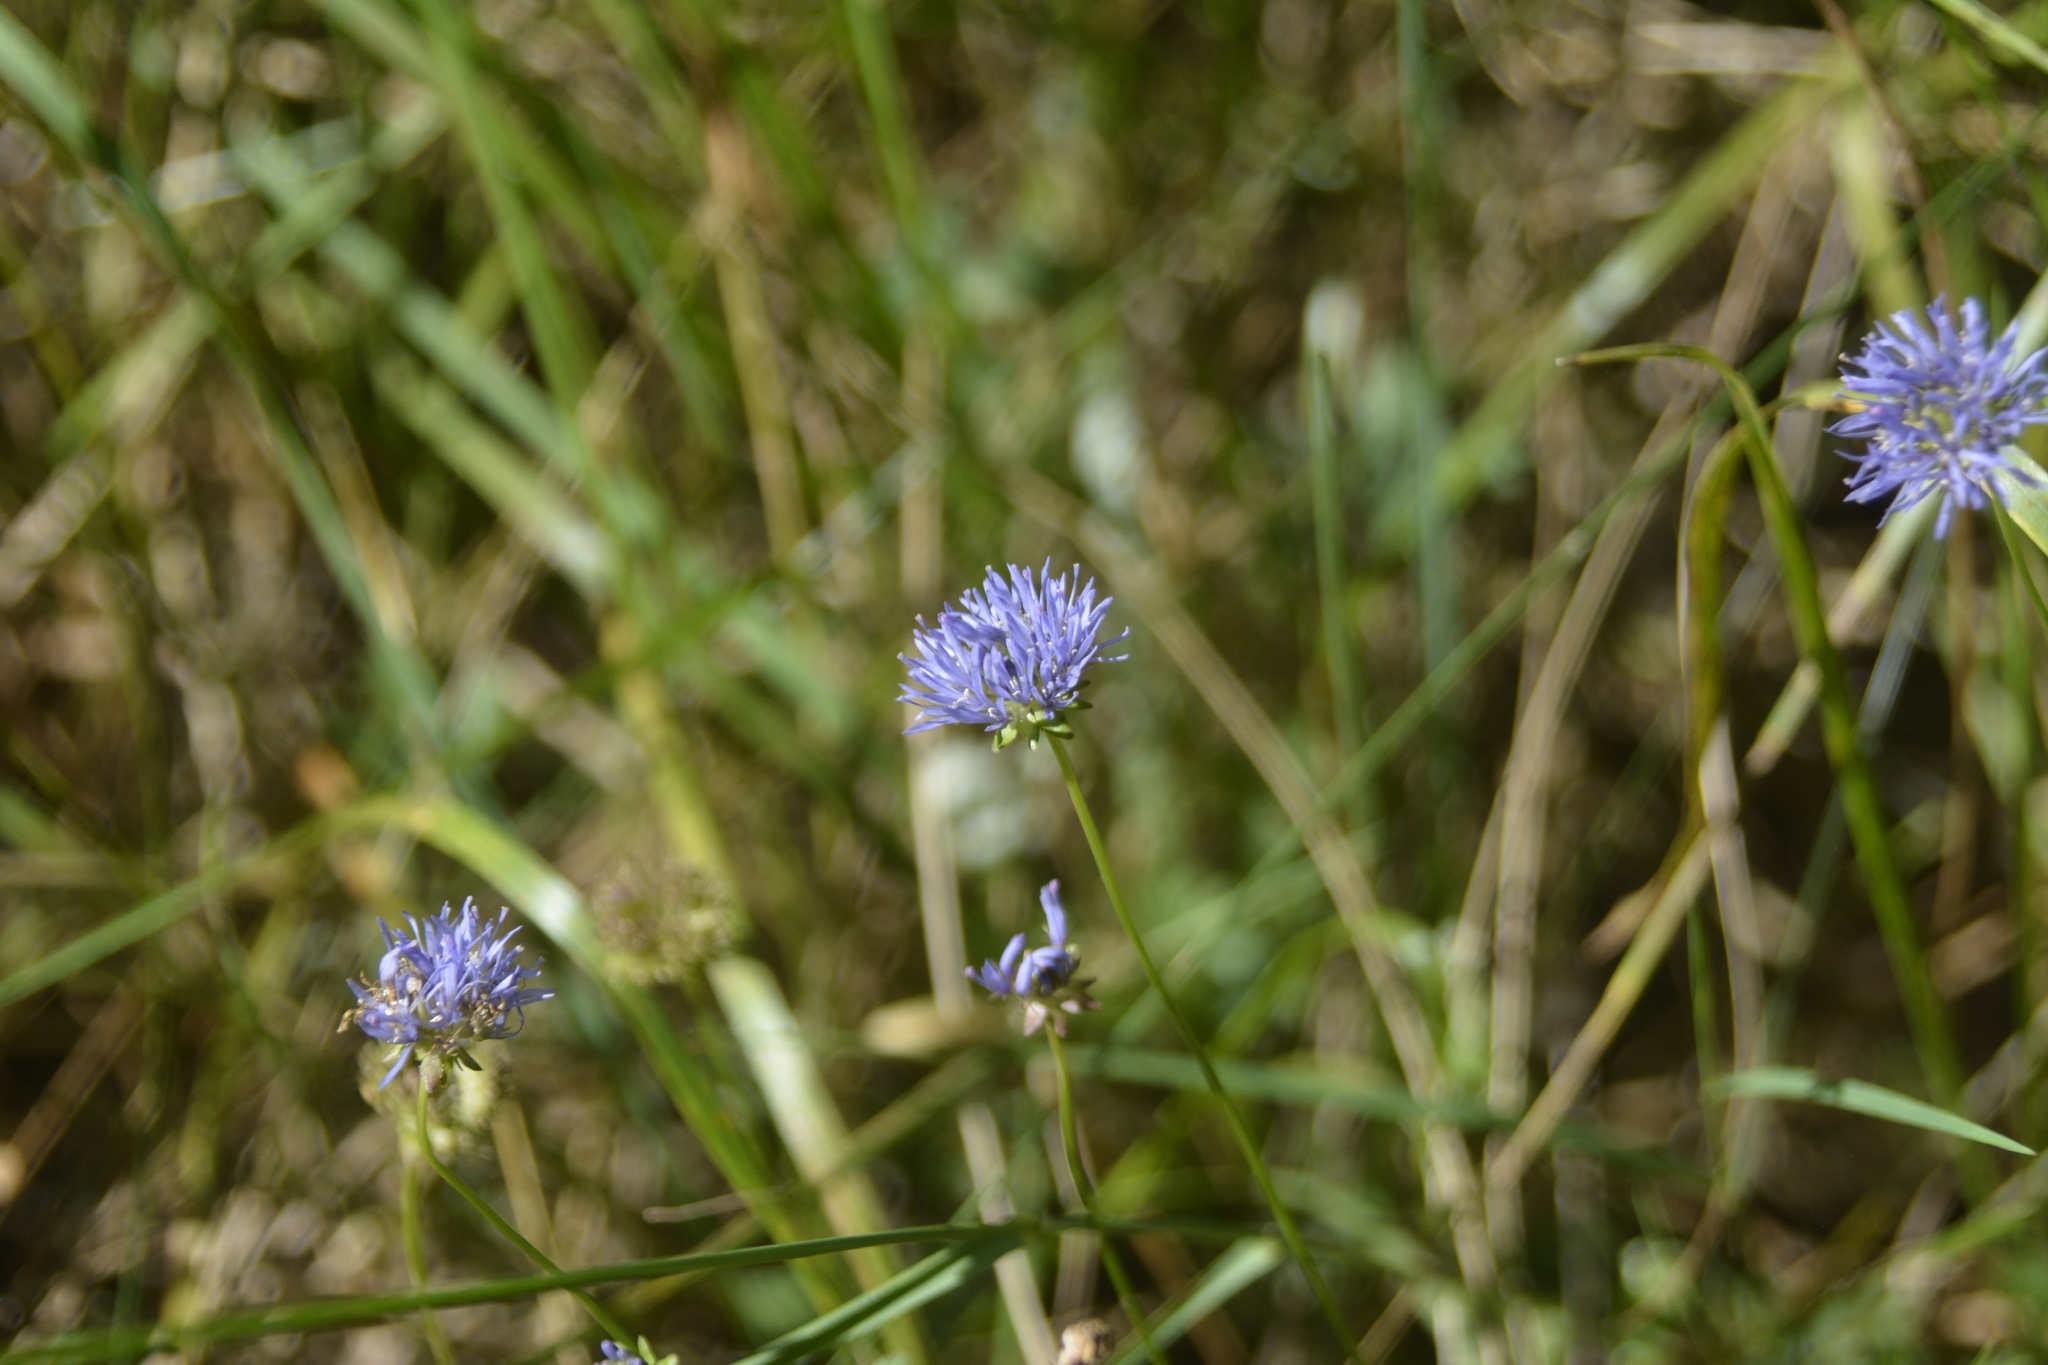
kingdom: Plantae
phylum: Tracheophyta
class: Magnoliopsida
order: Asterales
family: Campanulaceae
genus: Jasione
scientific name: Jasione montana
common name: Sheep's-bit
